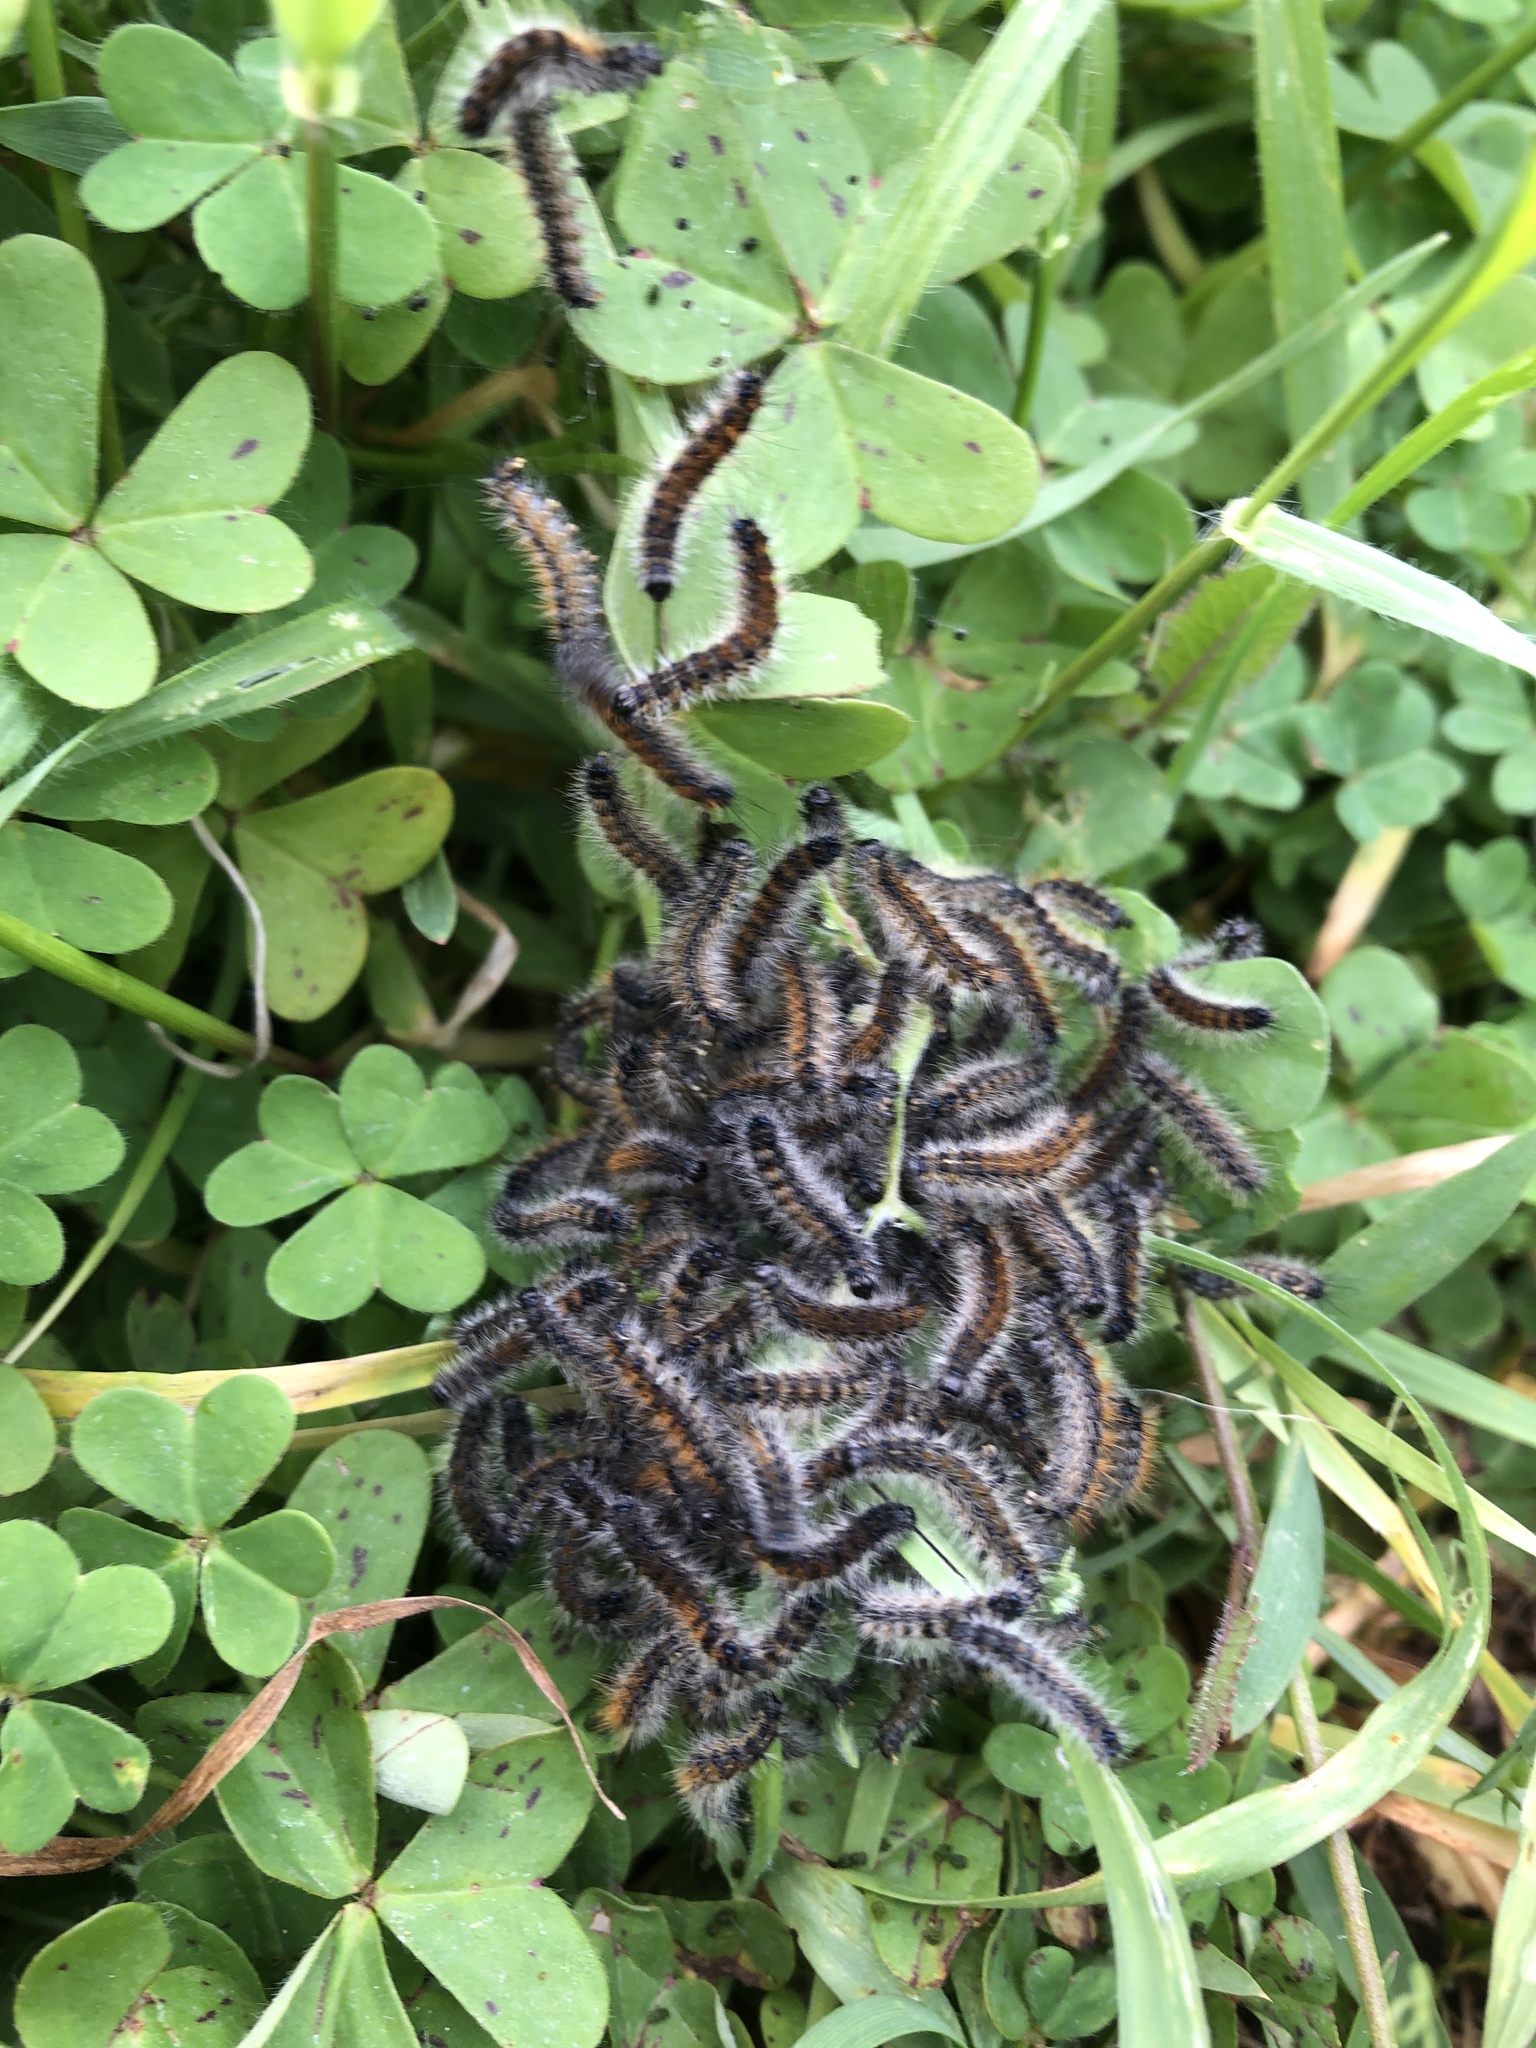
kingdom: Animalia
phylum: Arthropoda
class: Insecta
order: Lepidoptera
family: Erebidae
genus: Ocnogyna
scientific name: Ocnogyna loewii
